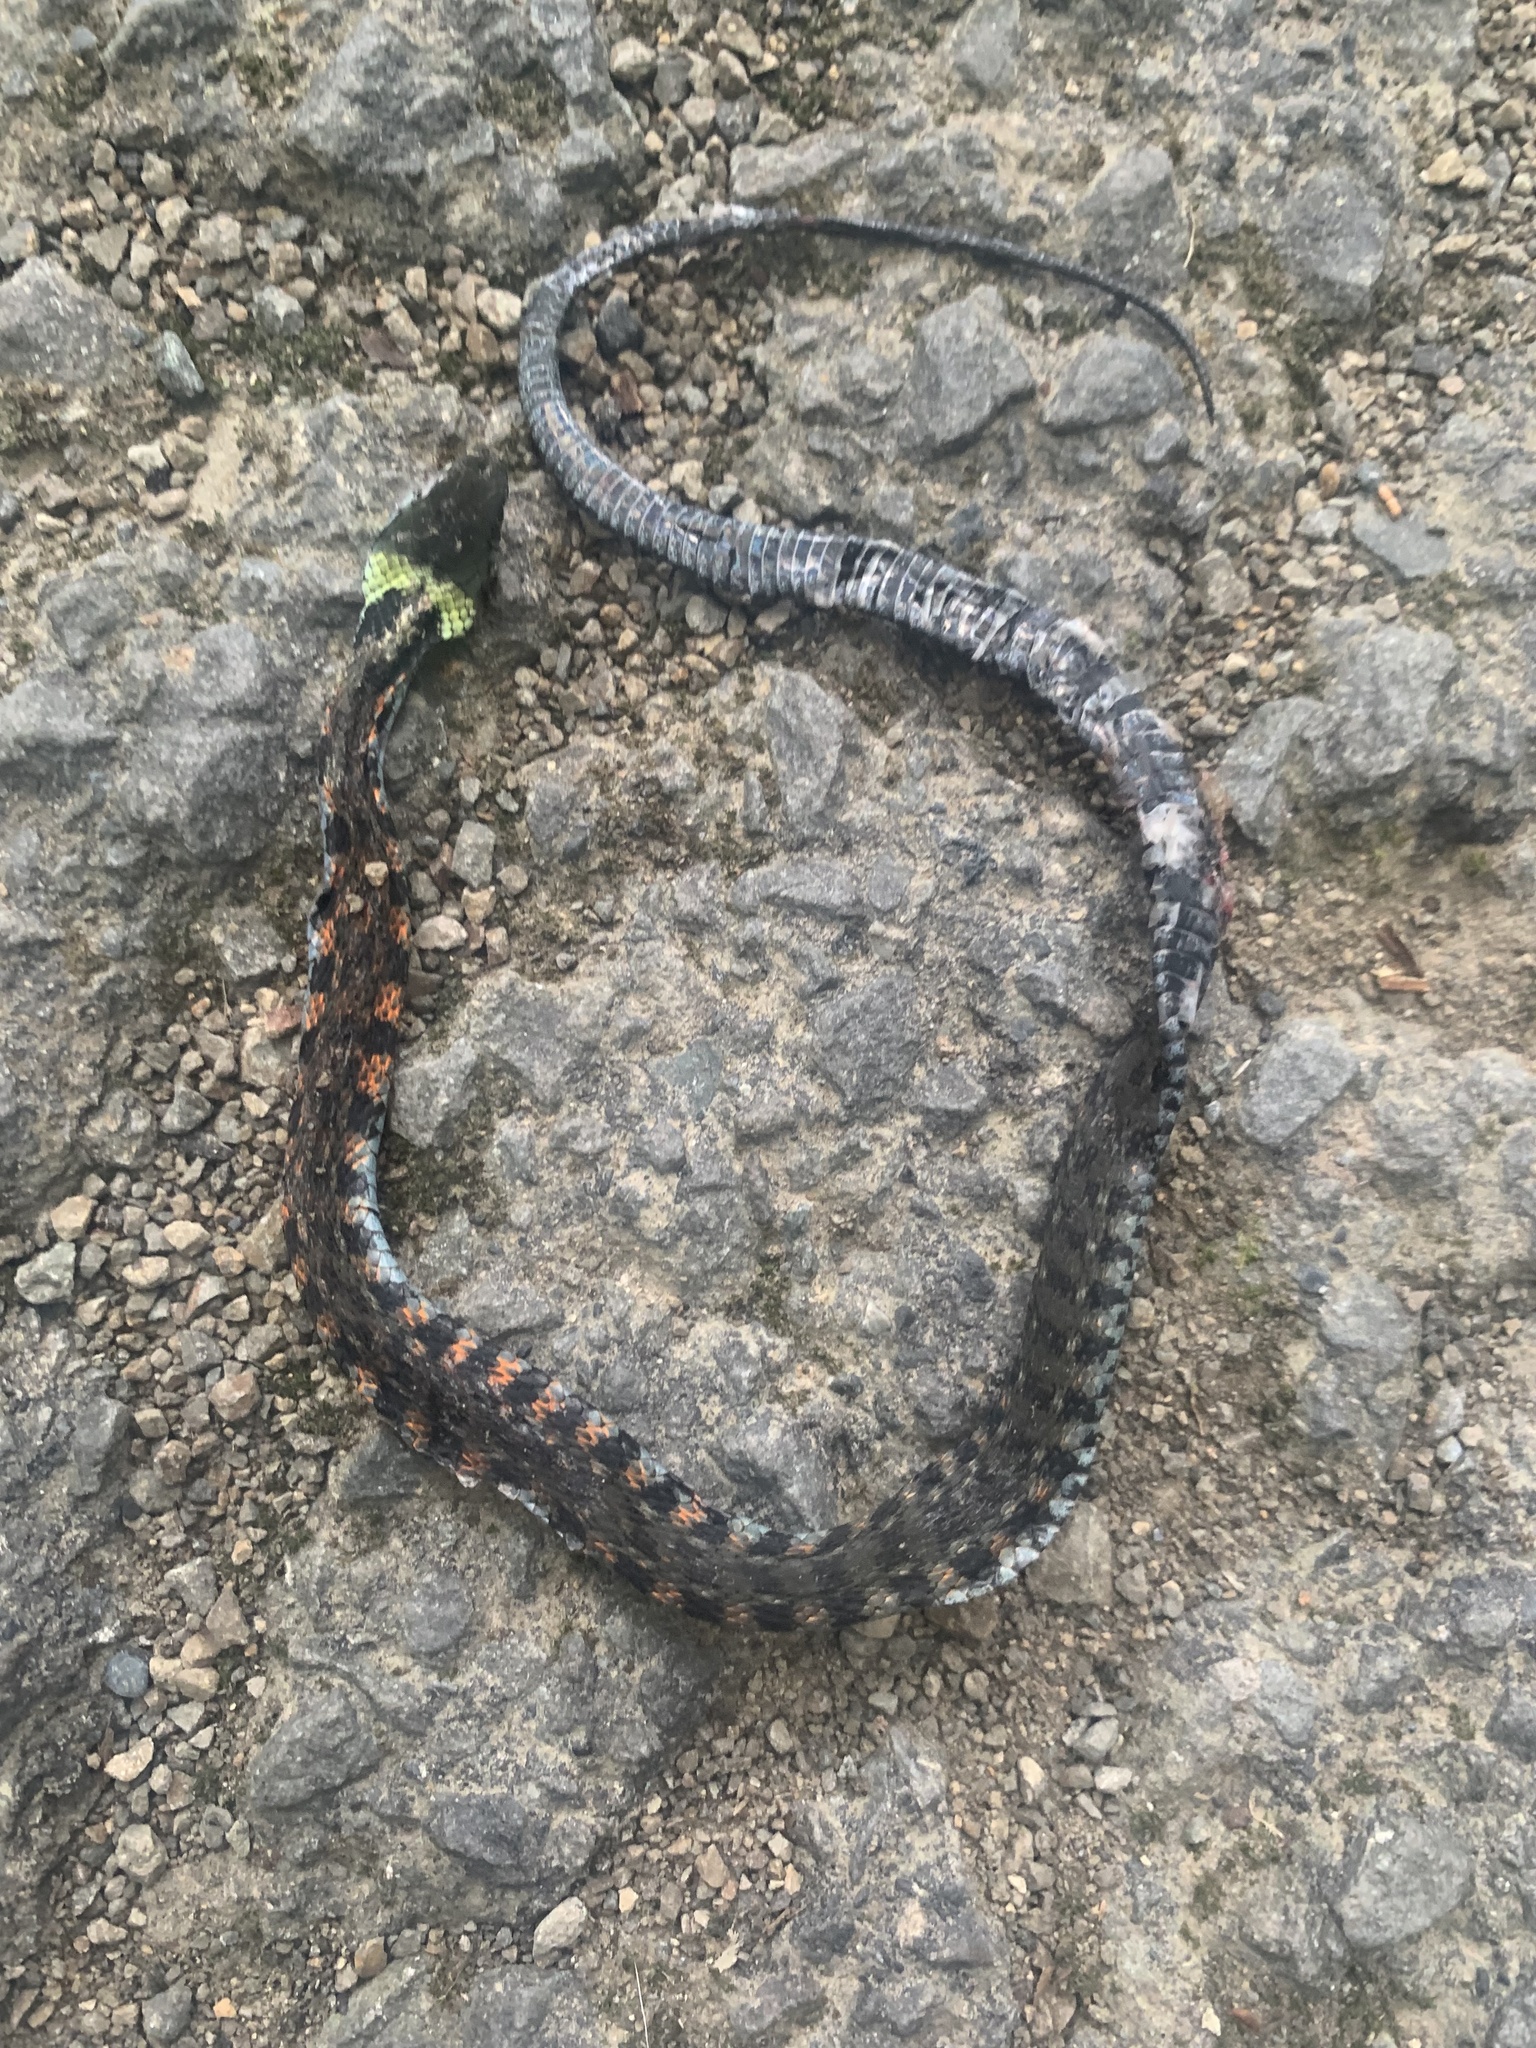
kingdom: Animalia
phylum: Chordata
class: Squamata
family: Colubridae
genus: Rhabdophis
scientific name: Rhabdophis tigrinus
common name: Tiger keelback
